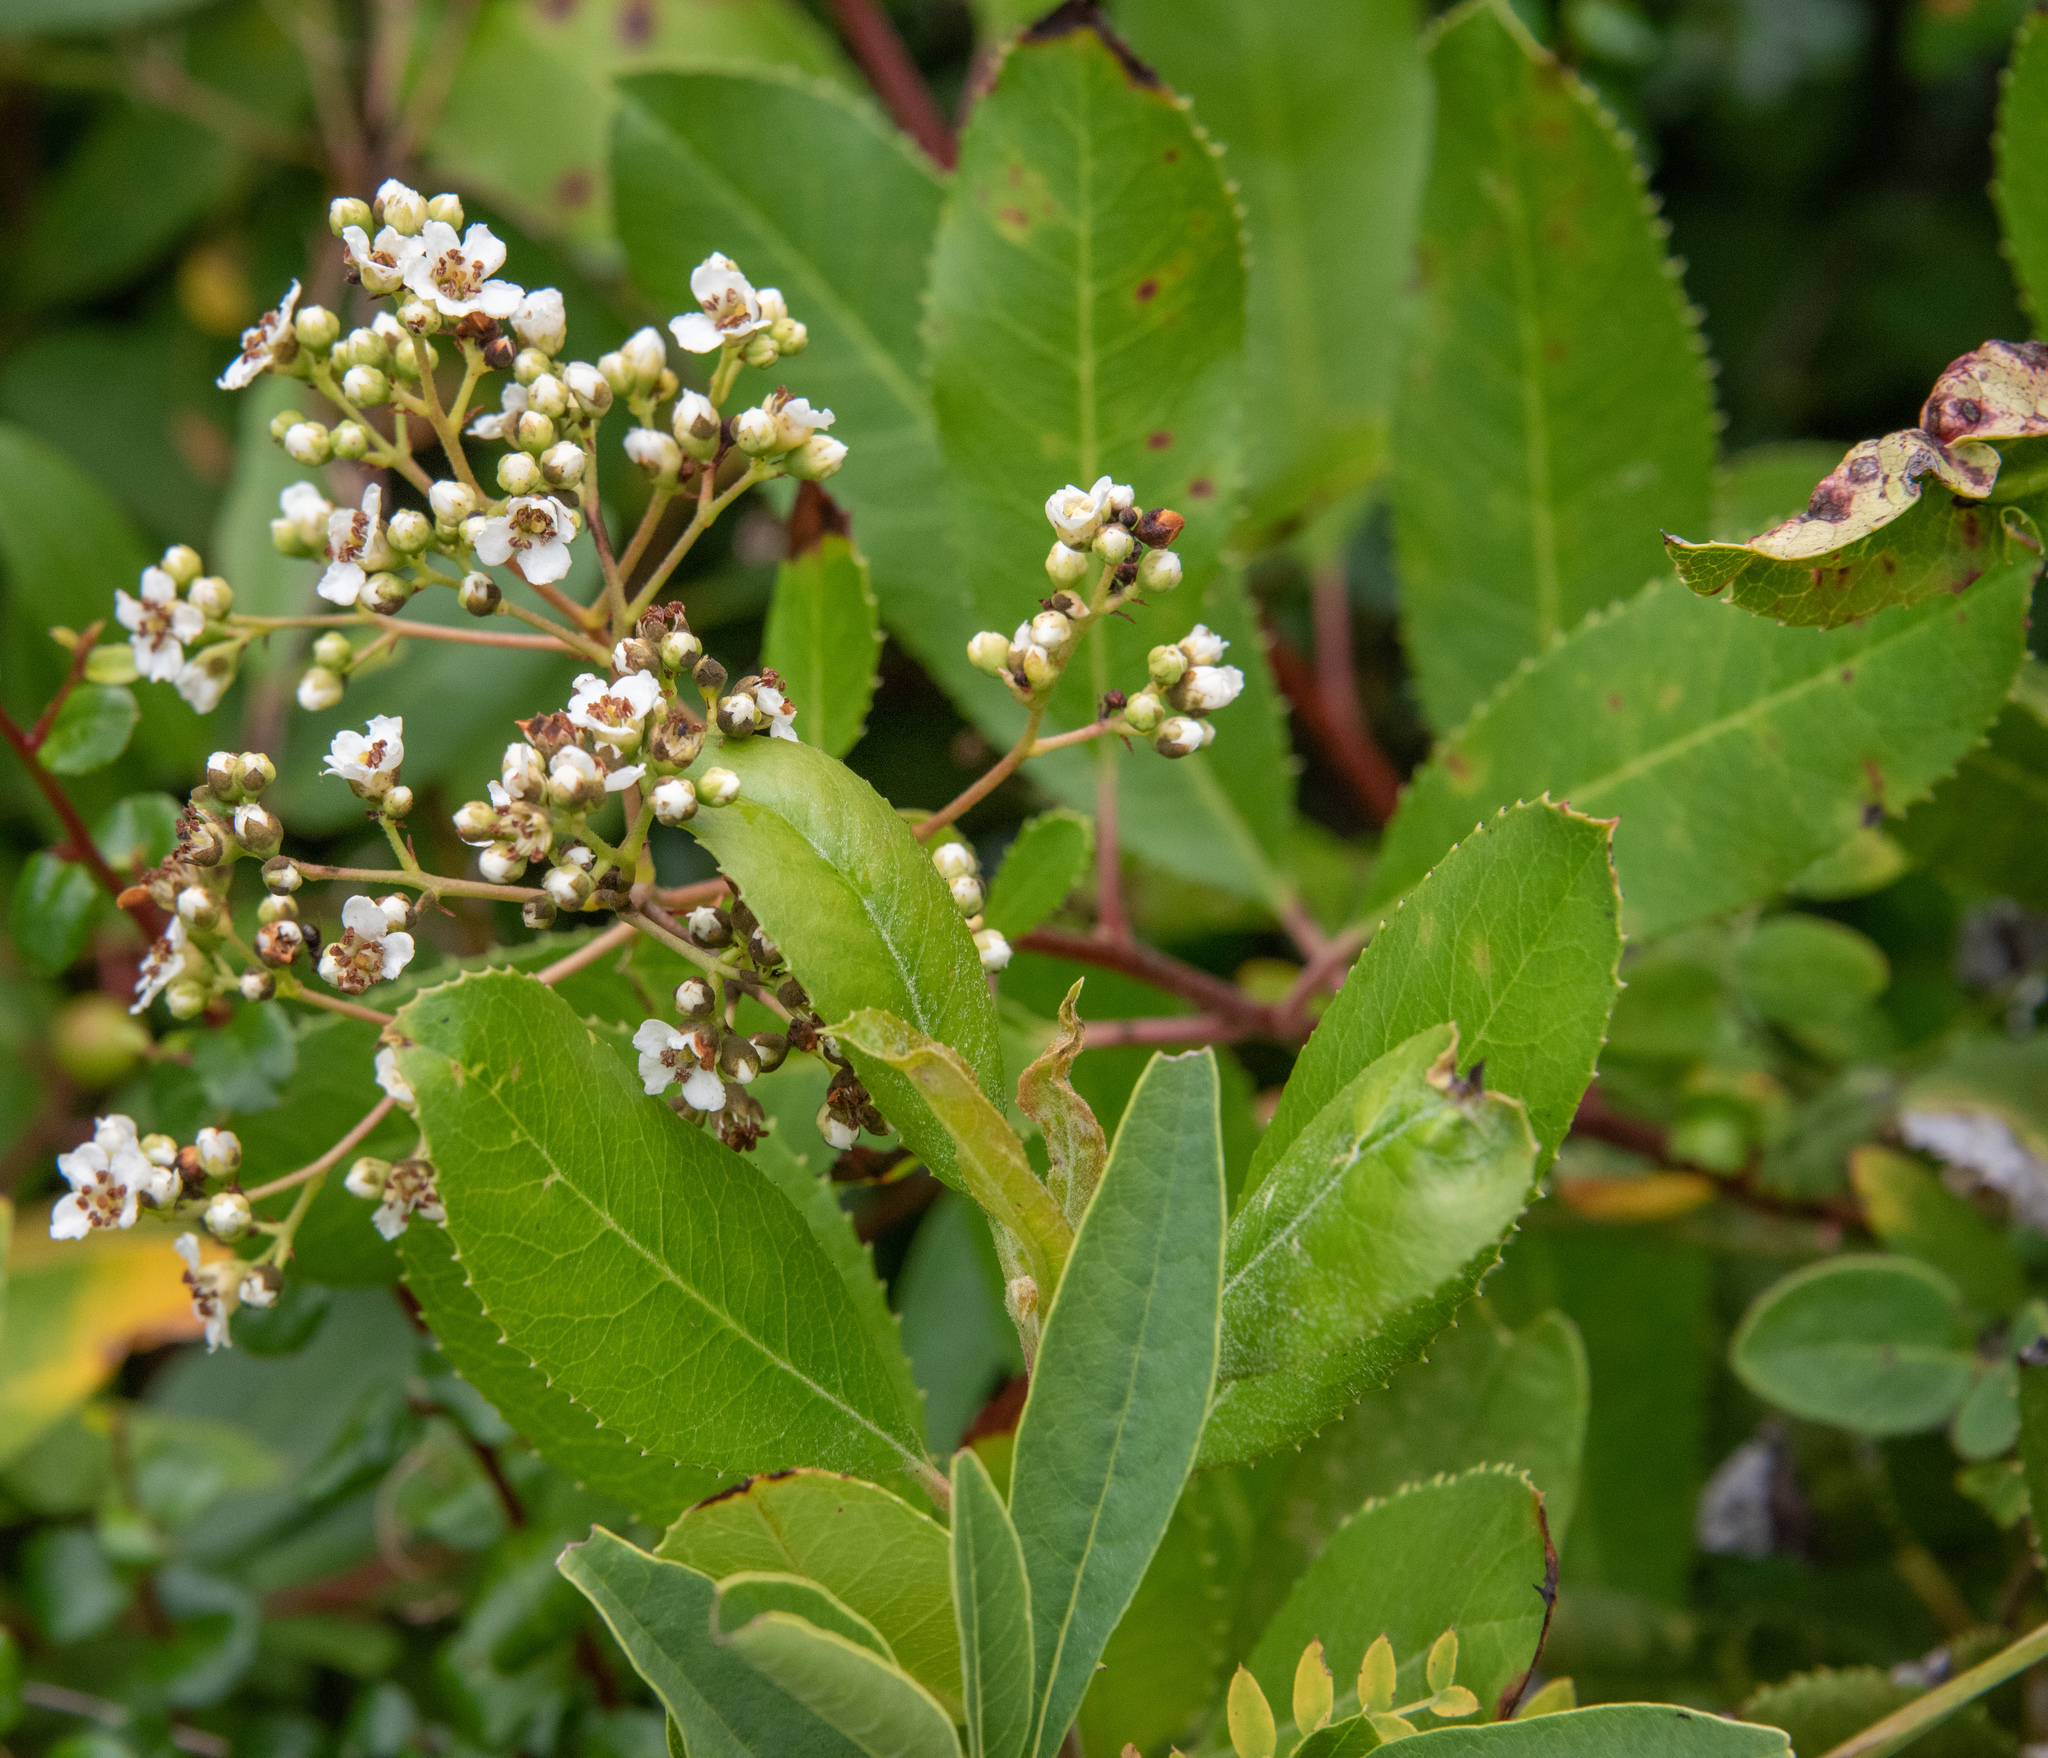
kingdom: Plantae
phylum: Tracheophyta
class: Magnoliopsida
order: Rosales
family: Rosaceae
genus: Heteromeles
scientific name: Heteromeles arbutifolia
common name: California-holly
